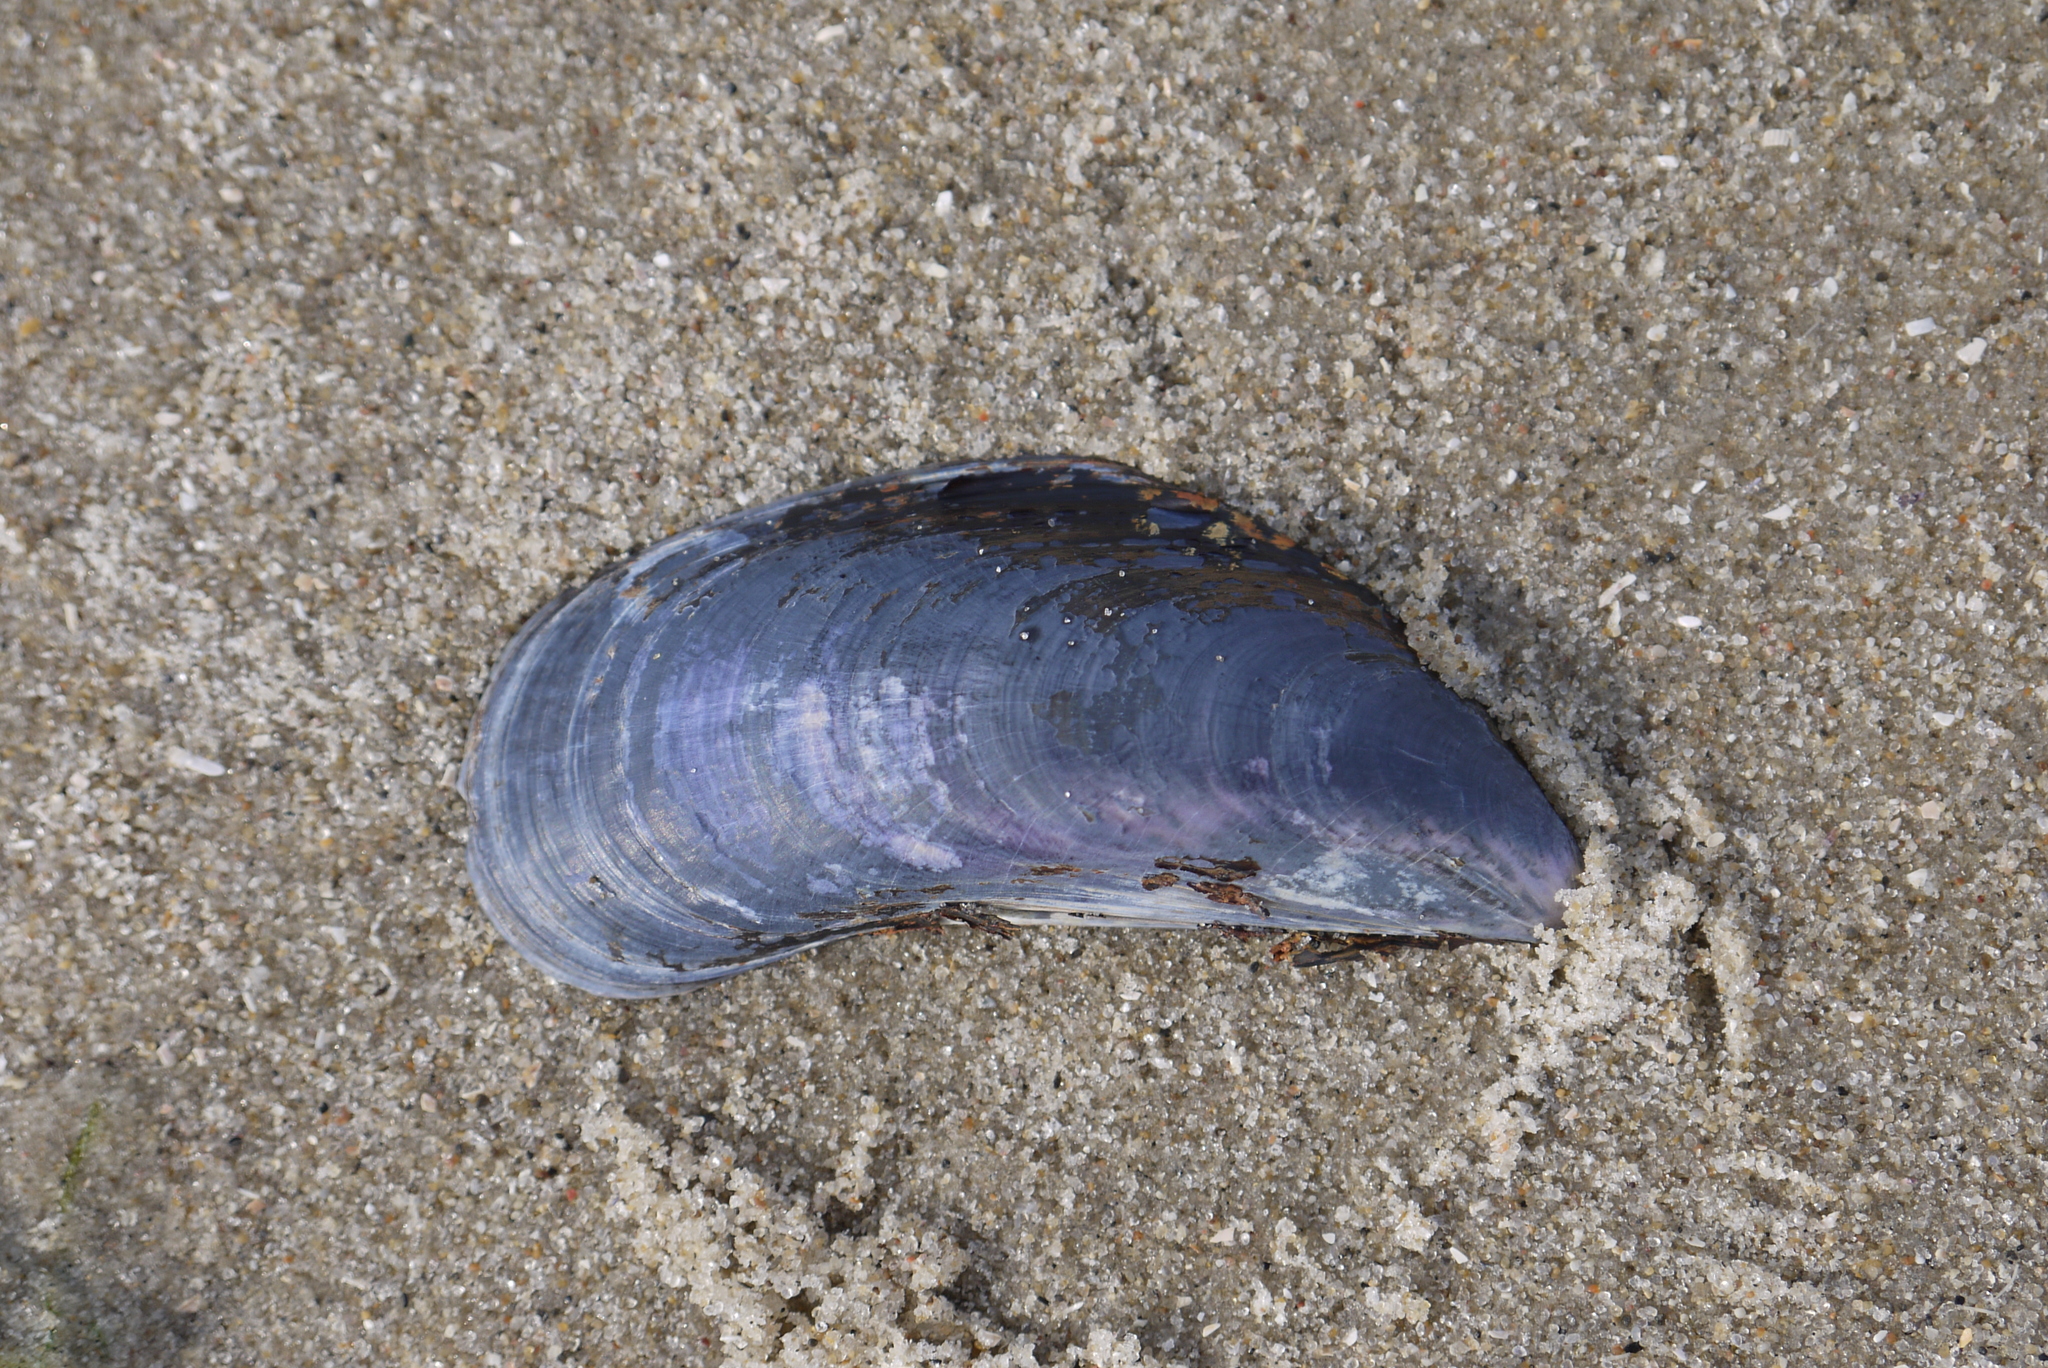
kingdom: Animalia
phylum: Mollusca
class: Bivalvia
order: Mytilida
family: Mytilidae
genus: Mytilus
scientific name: Mytilus edulis
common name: Blue mussel
